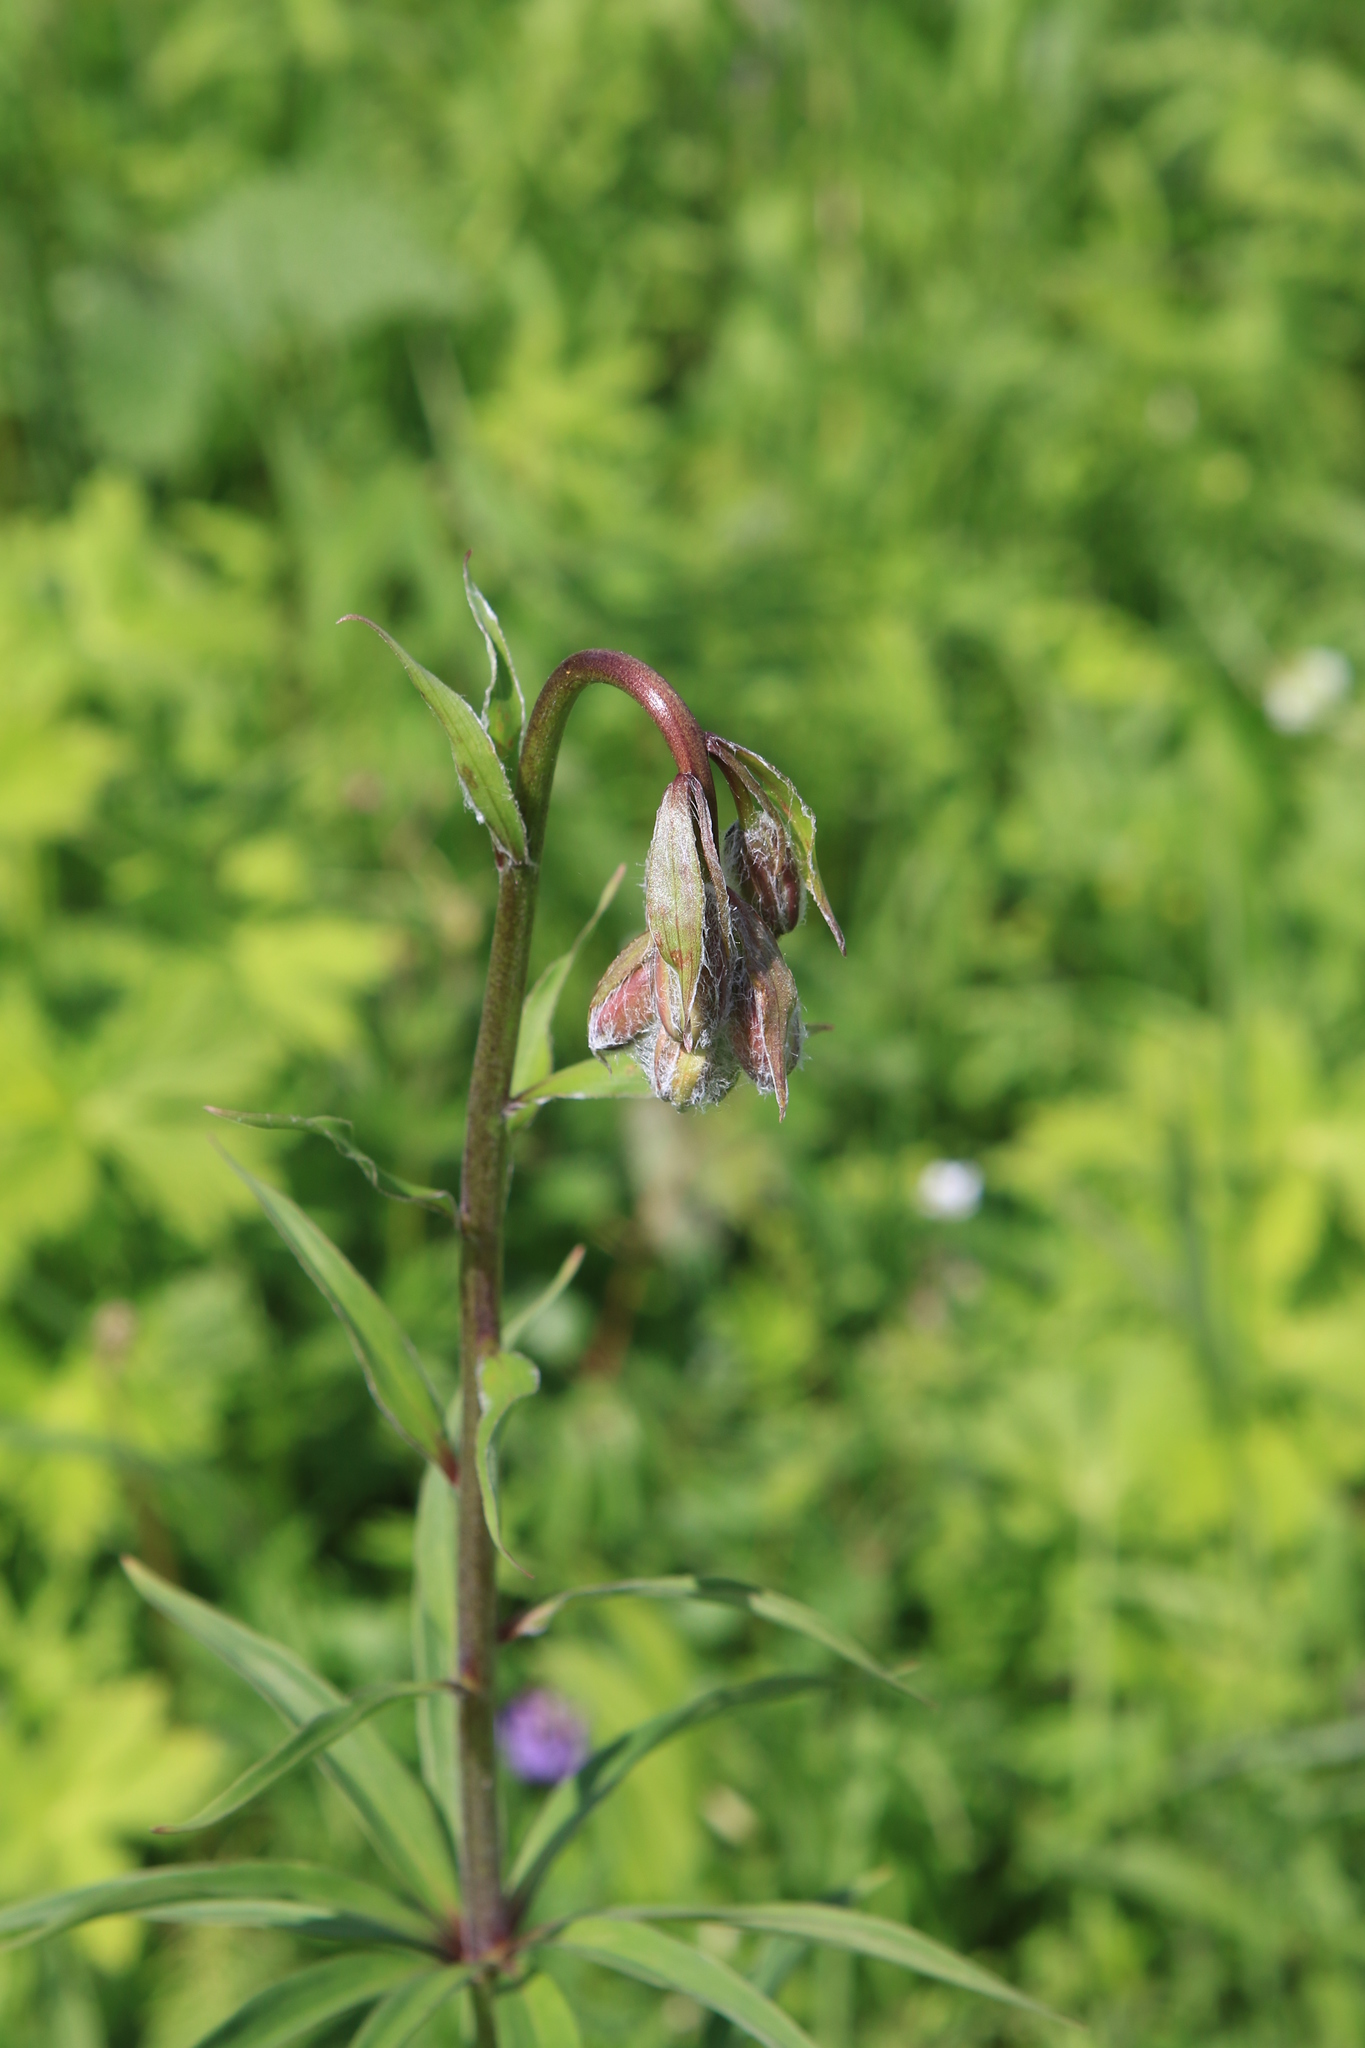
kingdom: Plantae
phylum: Tracheophyta
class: Liliopsida
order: Liliales
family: Liliaceae
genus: Lilium
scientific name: Lilium martagon
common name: Martagon lily
